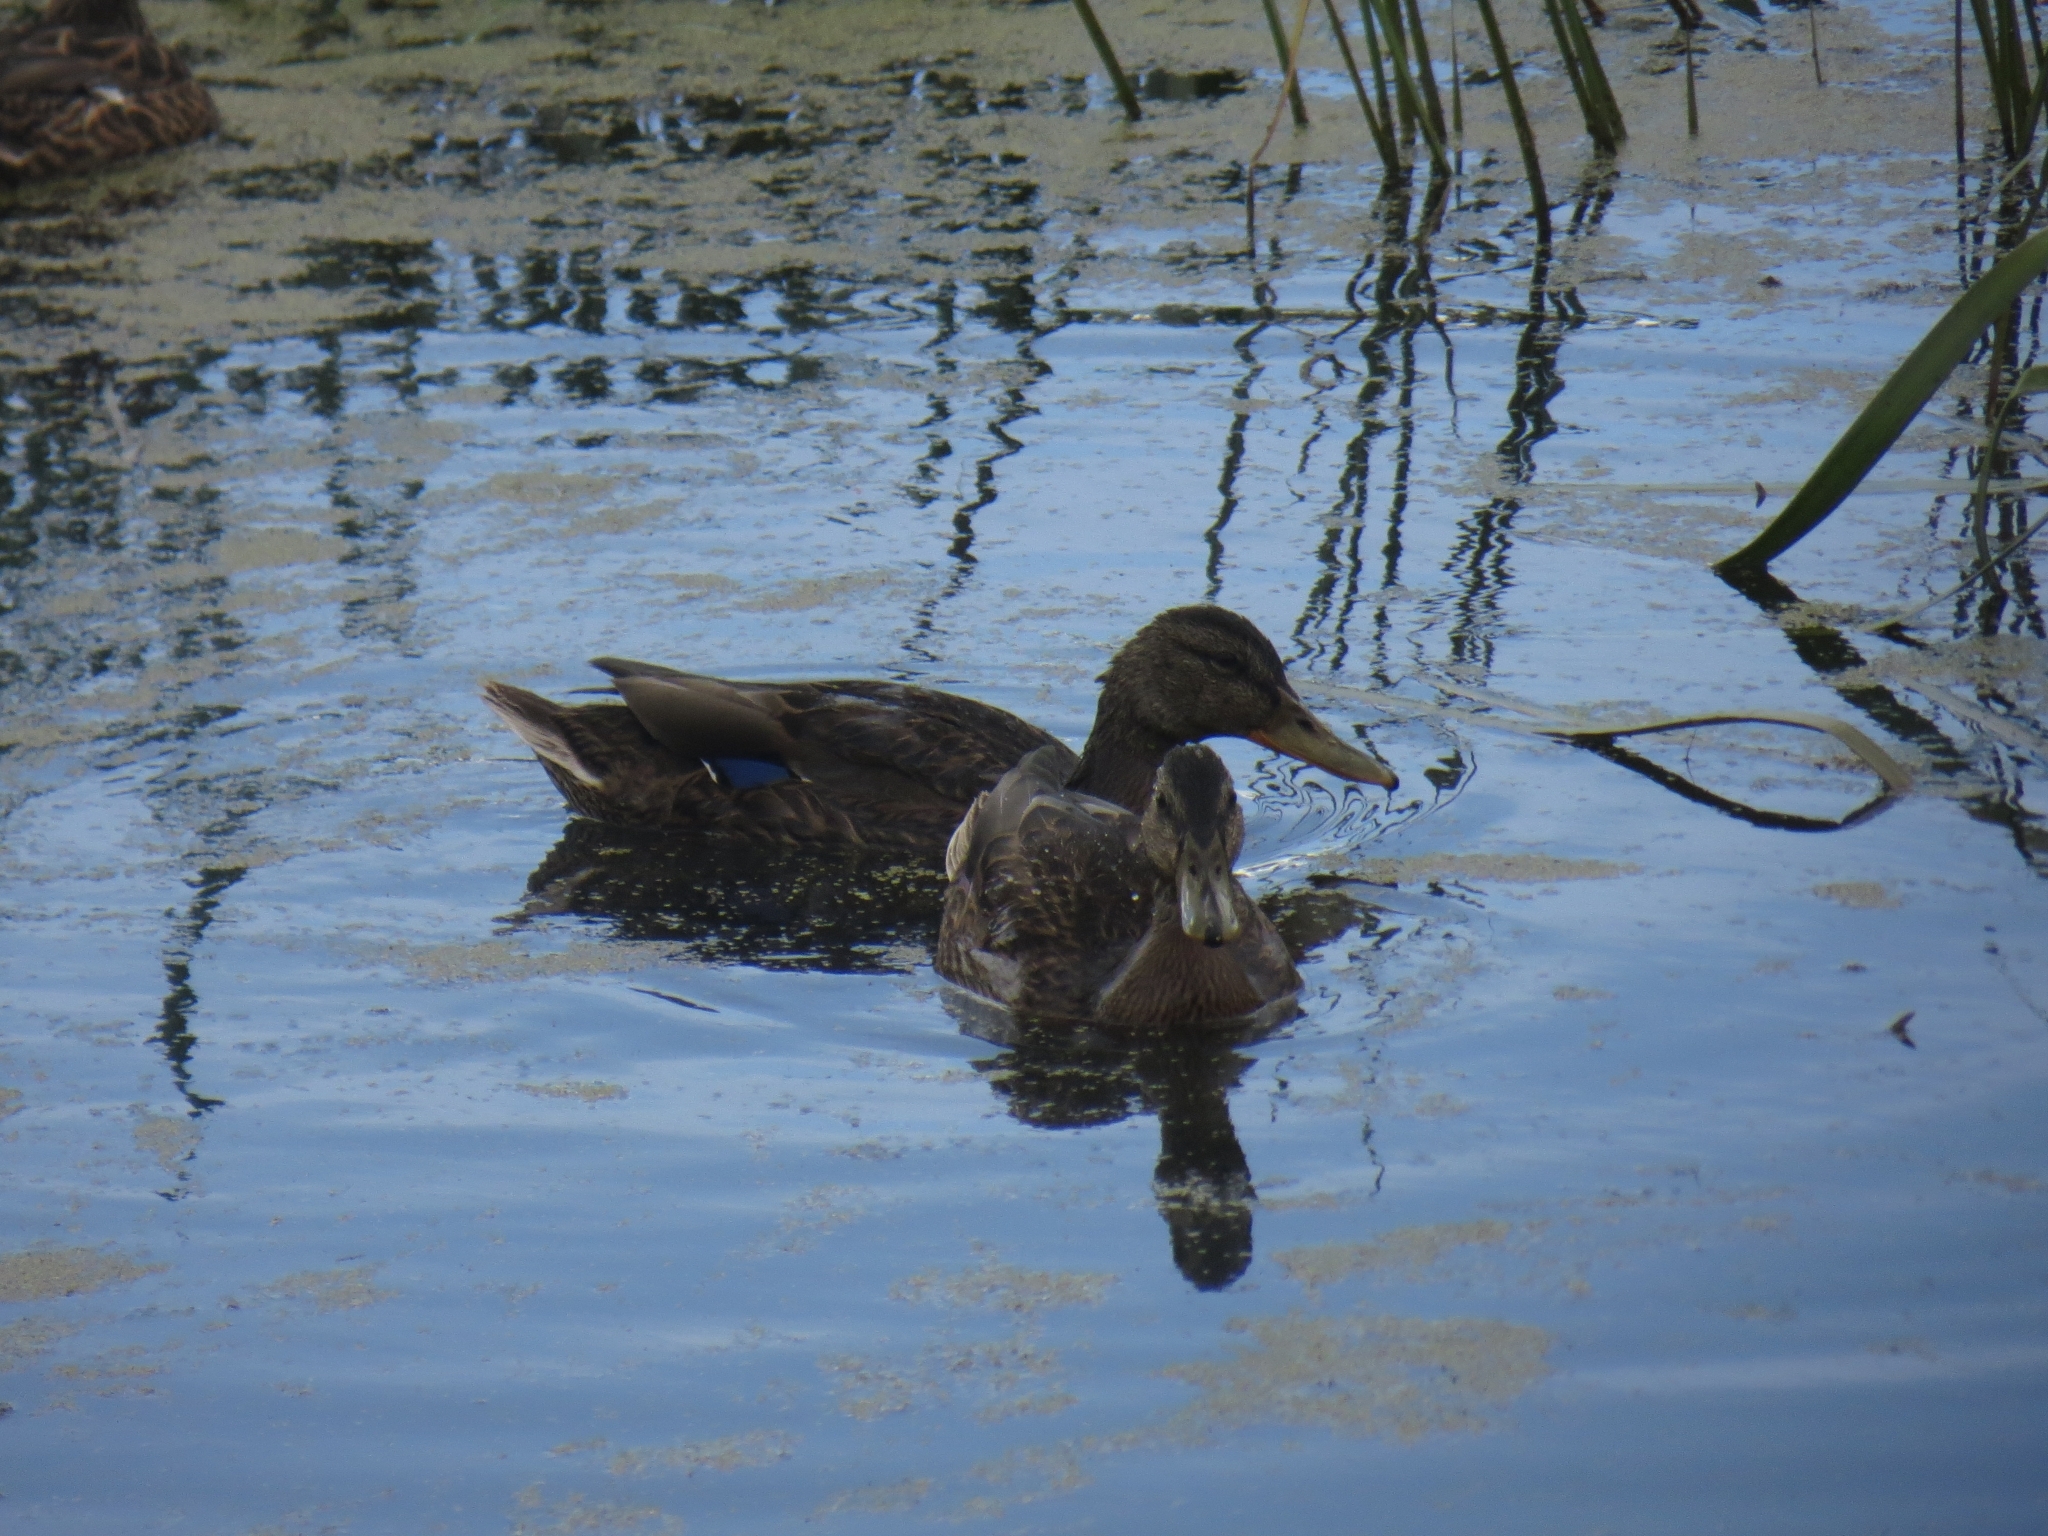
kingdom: Animalia
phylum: Chordata
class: Aves
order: Anseriformes
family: Anatidae
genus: Anas
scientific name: Anas platyrhynchos
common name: Mallard
